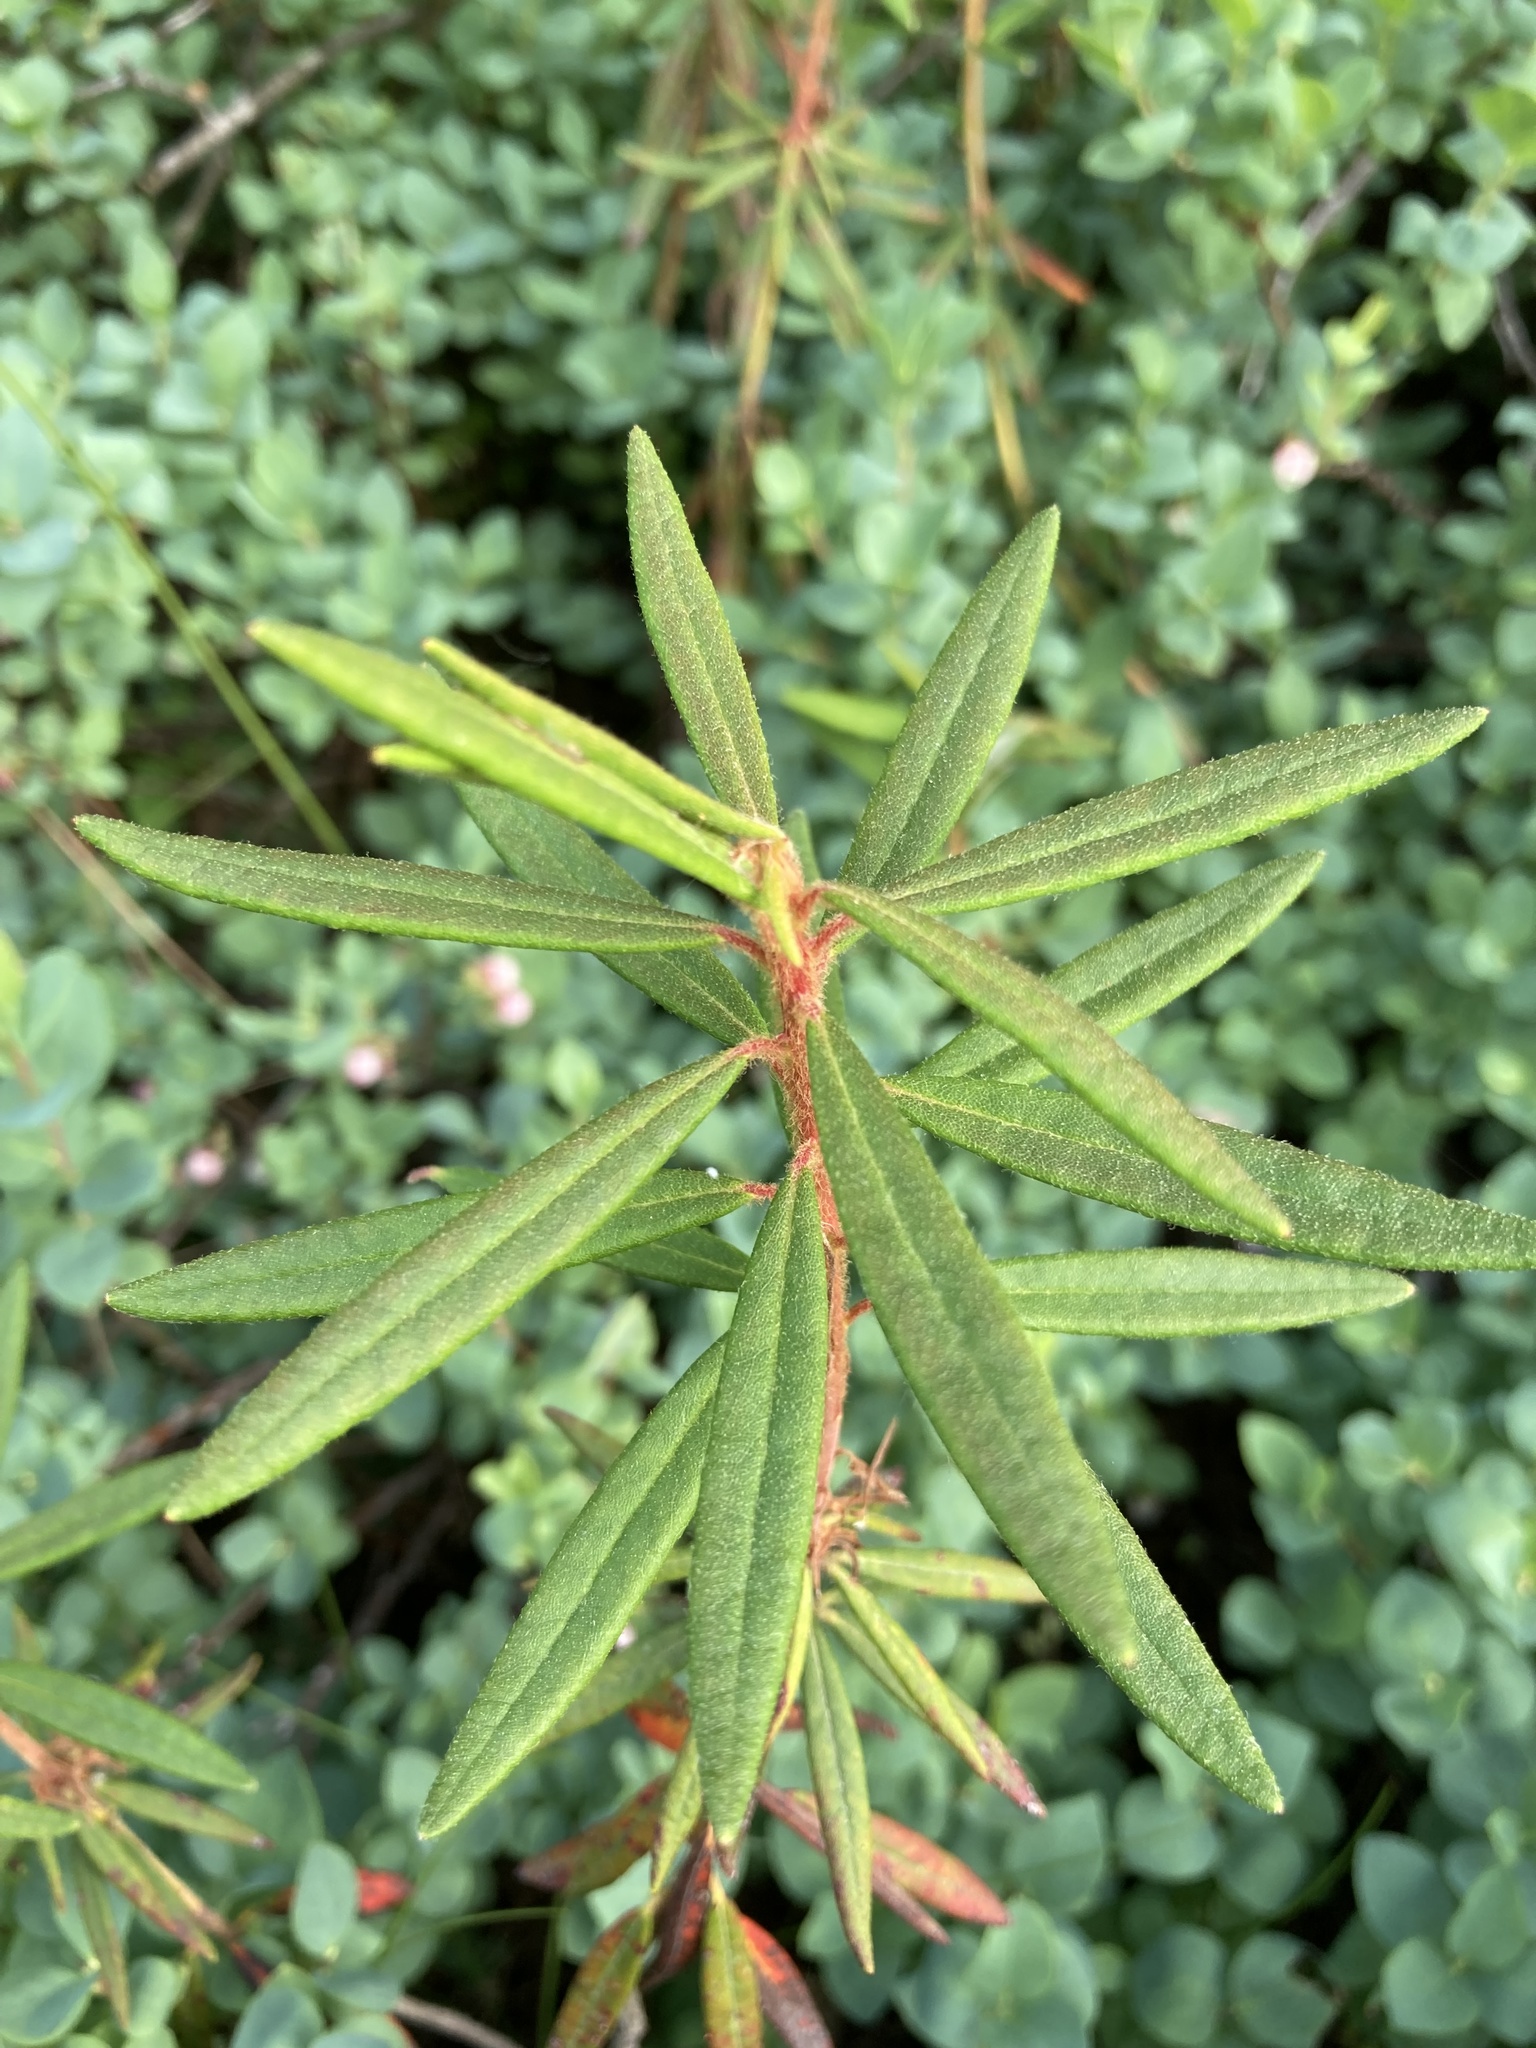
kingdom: Plantae
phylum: Tracheophyta
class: Magnoliopsida
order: Ericales
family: Ericaceae
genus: Rhododendron
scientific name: Rhododendron groenlandicum
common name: Bog labrador tea
